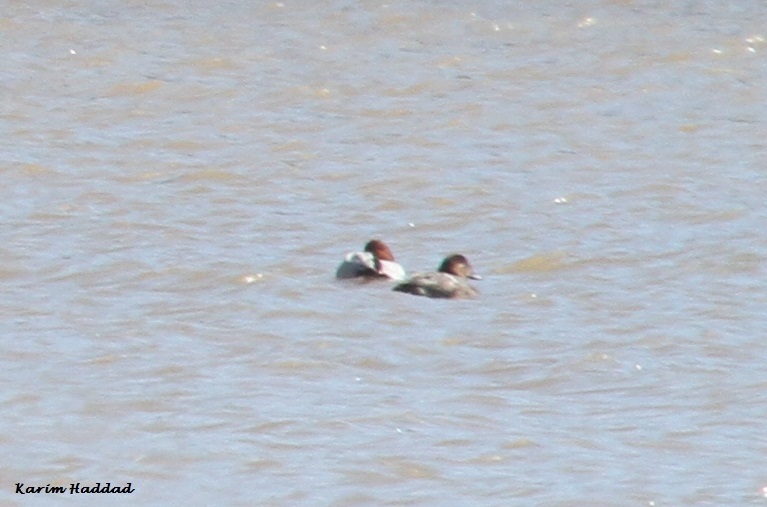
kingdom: Animalia
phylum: Chordata
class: Aves
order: Anseriformes
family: Anatidae
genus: Aythya
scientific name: Aythya ferina
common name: Common pochard
